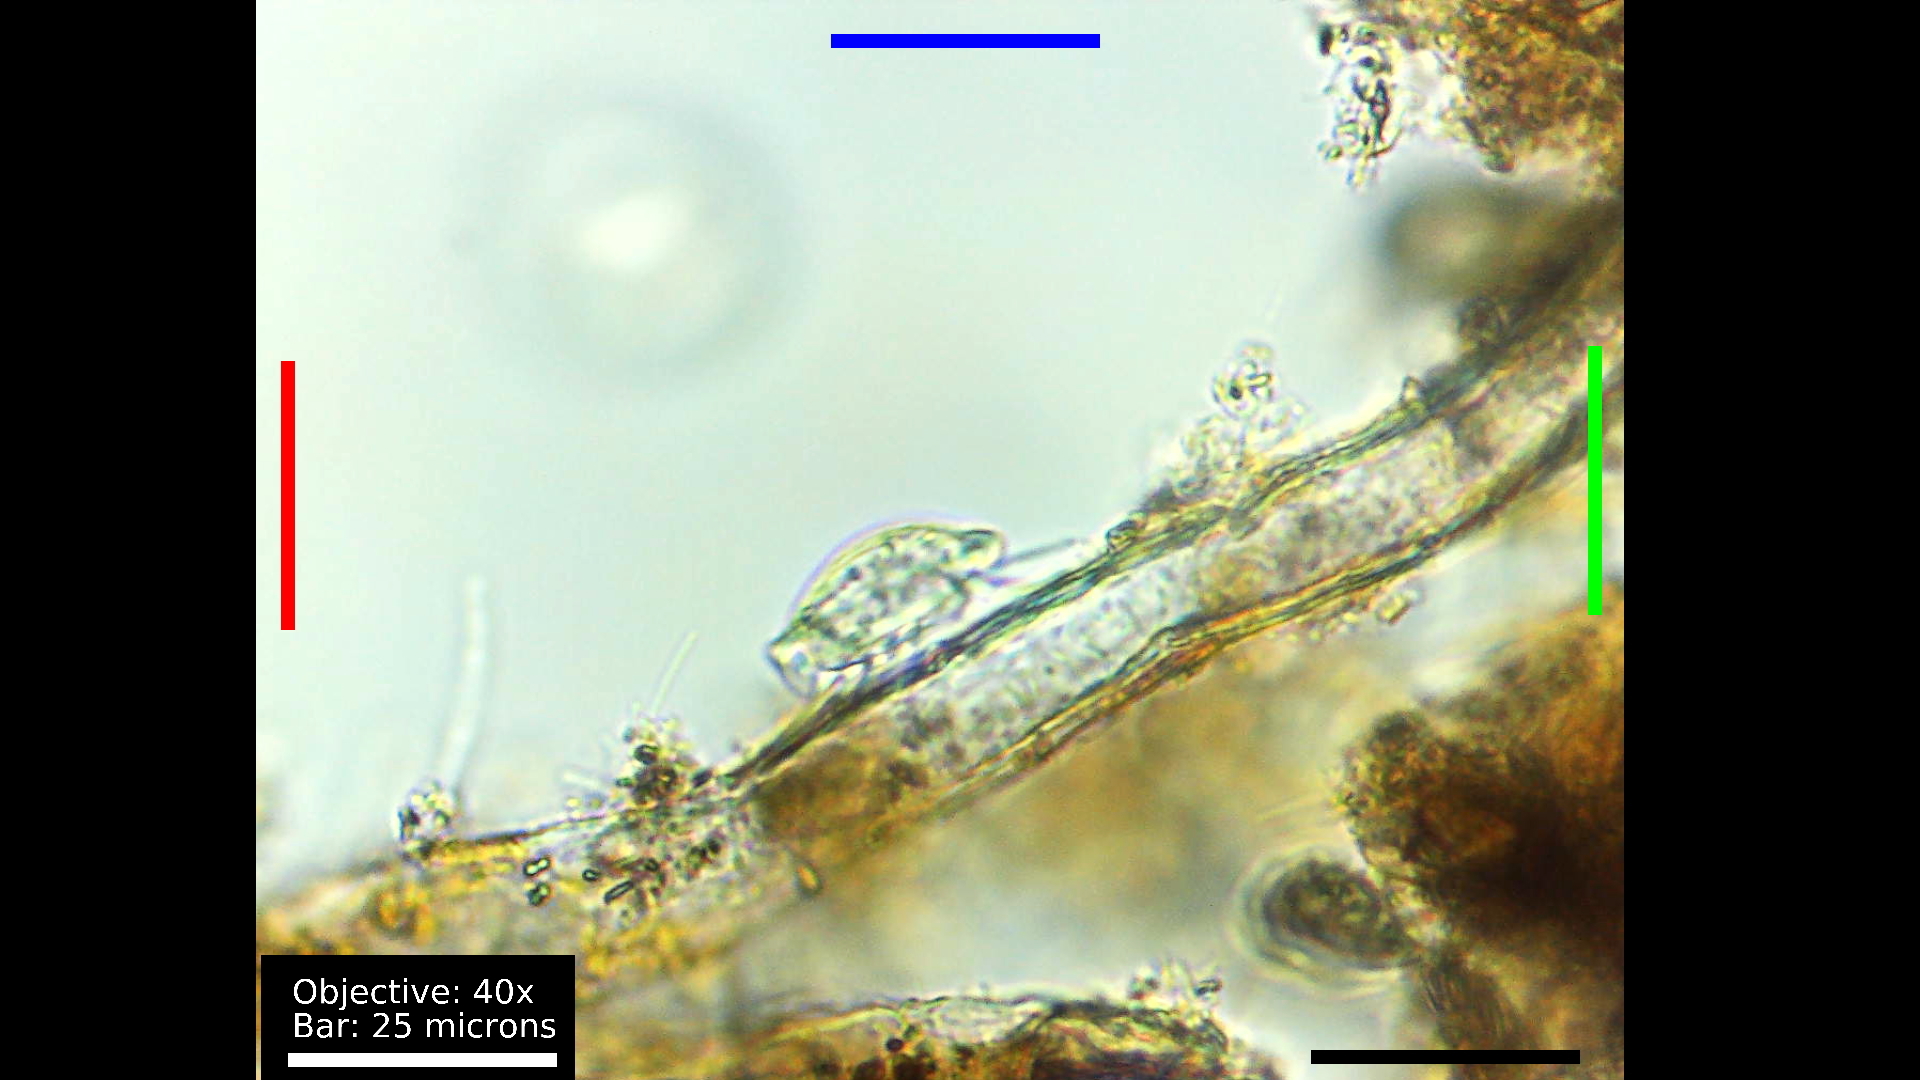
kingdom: Chromista
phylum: Ciliophora
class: Hypotrichea
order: Euplotida
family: Aspidiscidae
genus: Aspidisca
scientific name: Aspidisca cicada
